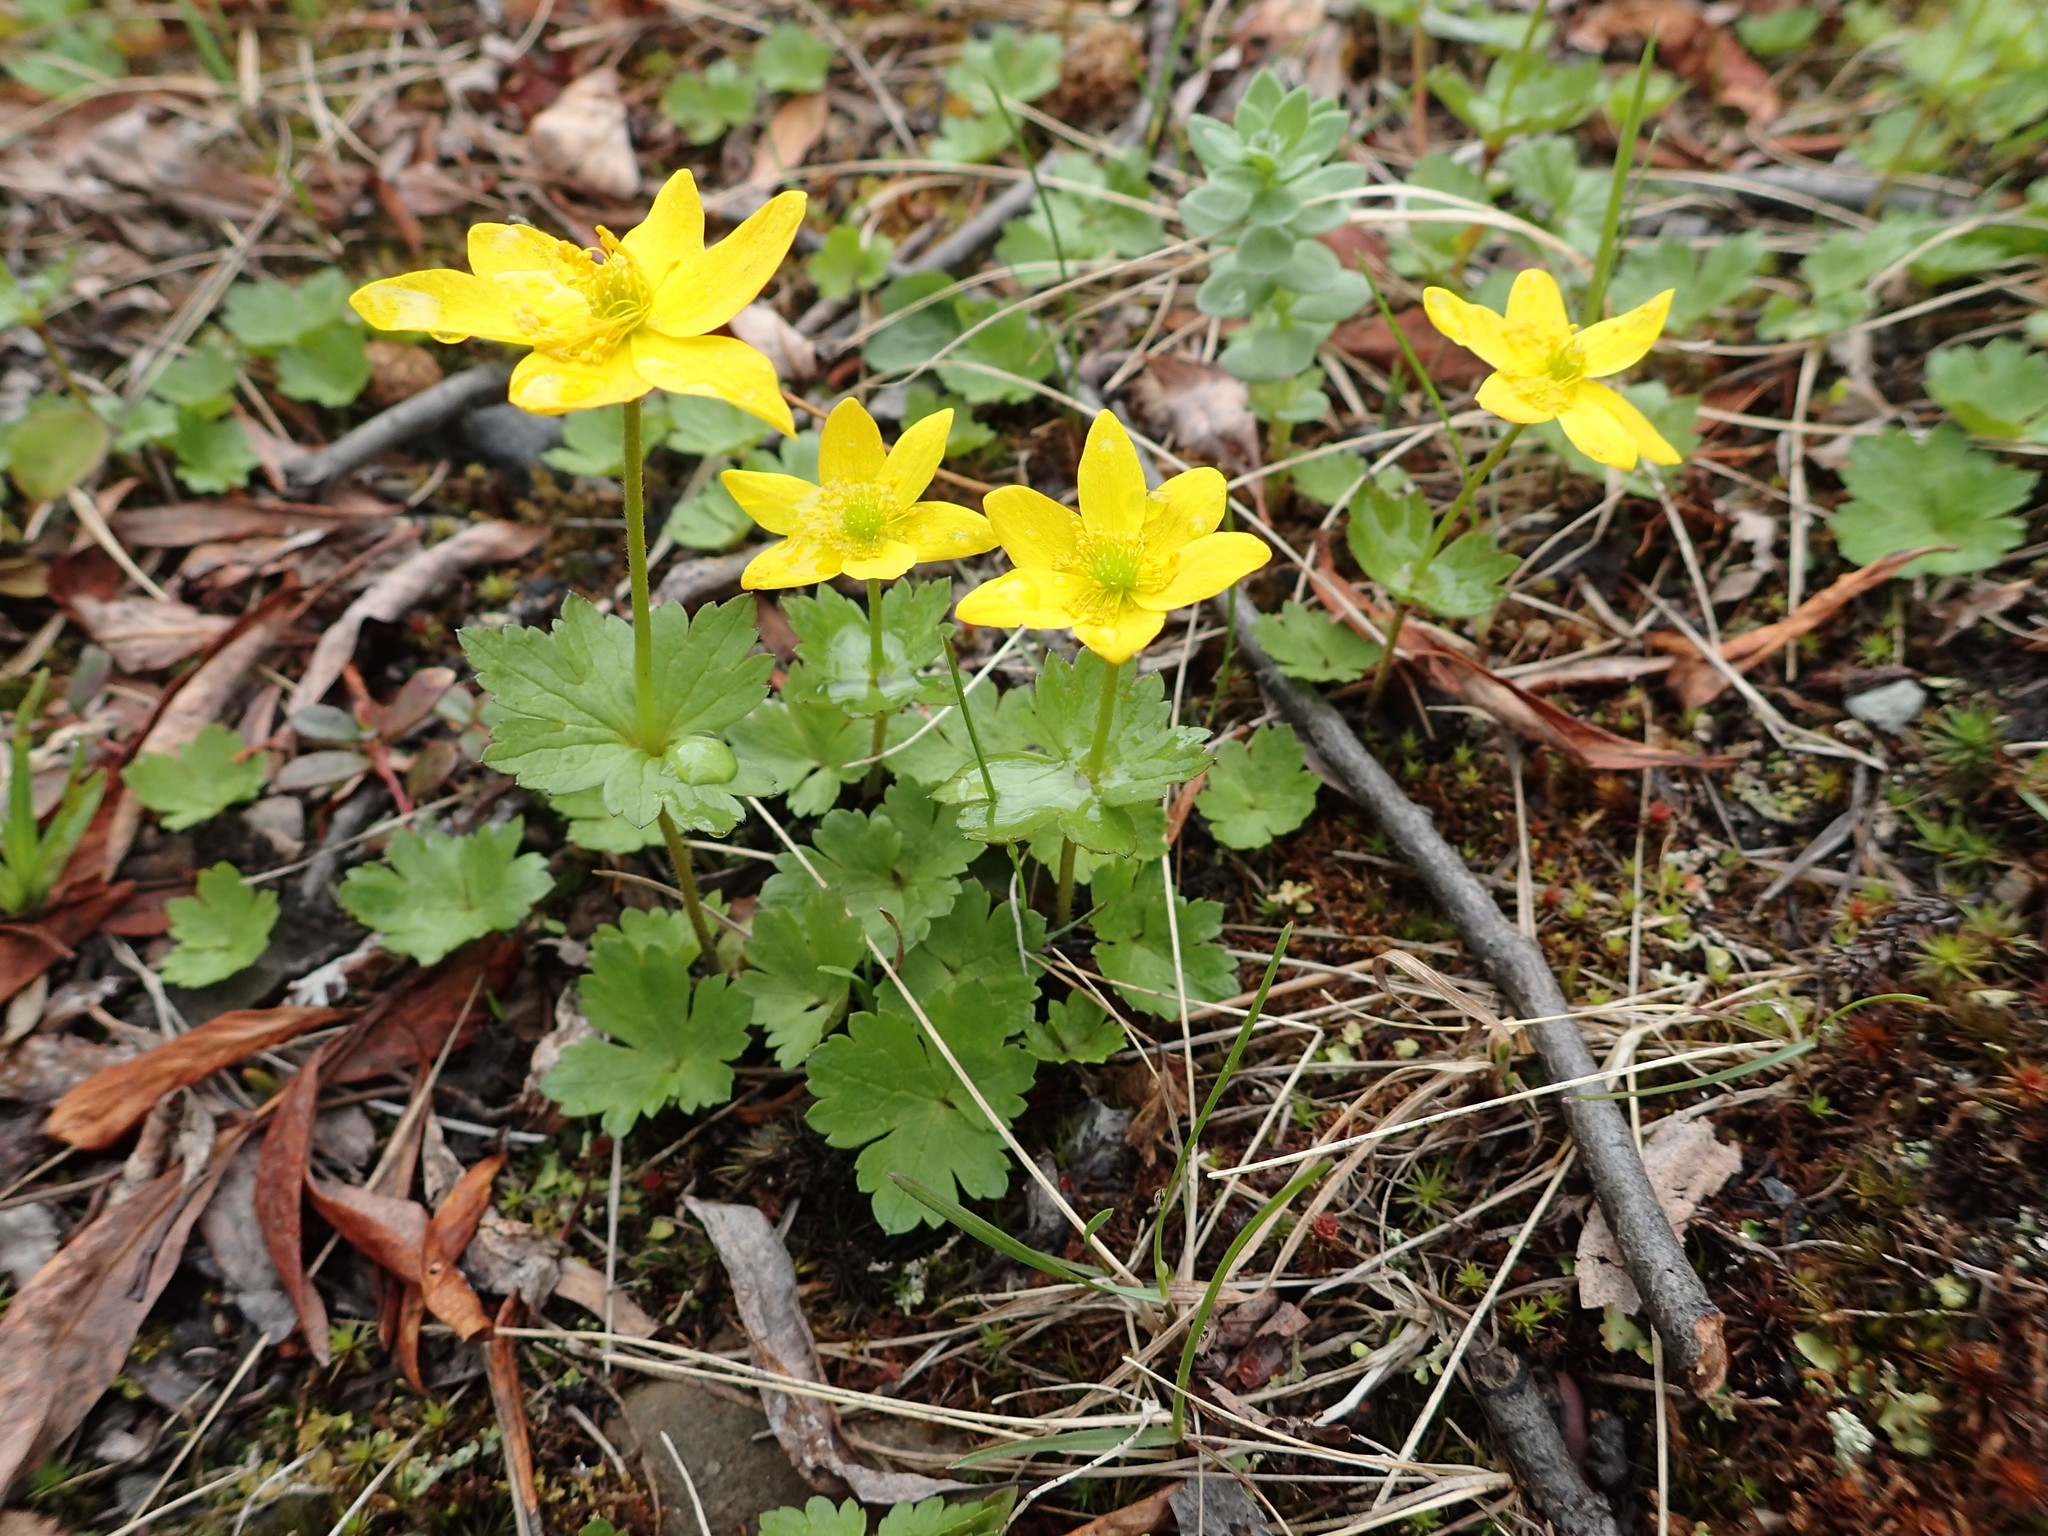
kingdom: Plantae
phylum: Tracheophyta
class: Magnoliopsida
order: Ranunculales
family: Ranunculaceae
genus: Anemonastrum
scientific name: Anemonastrum richardsonii
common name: Richardson's anemone
